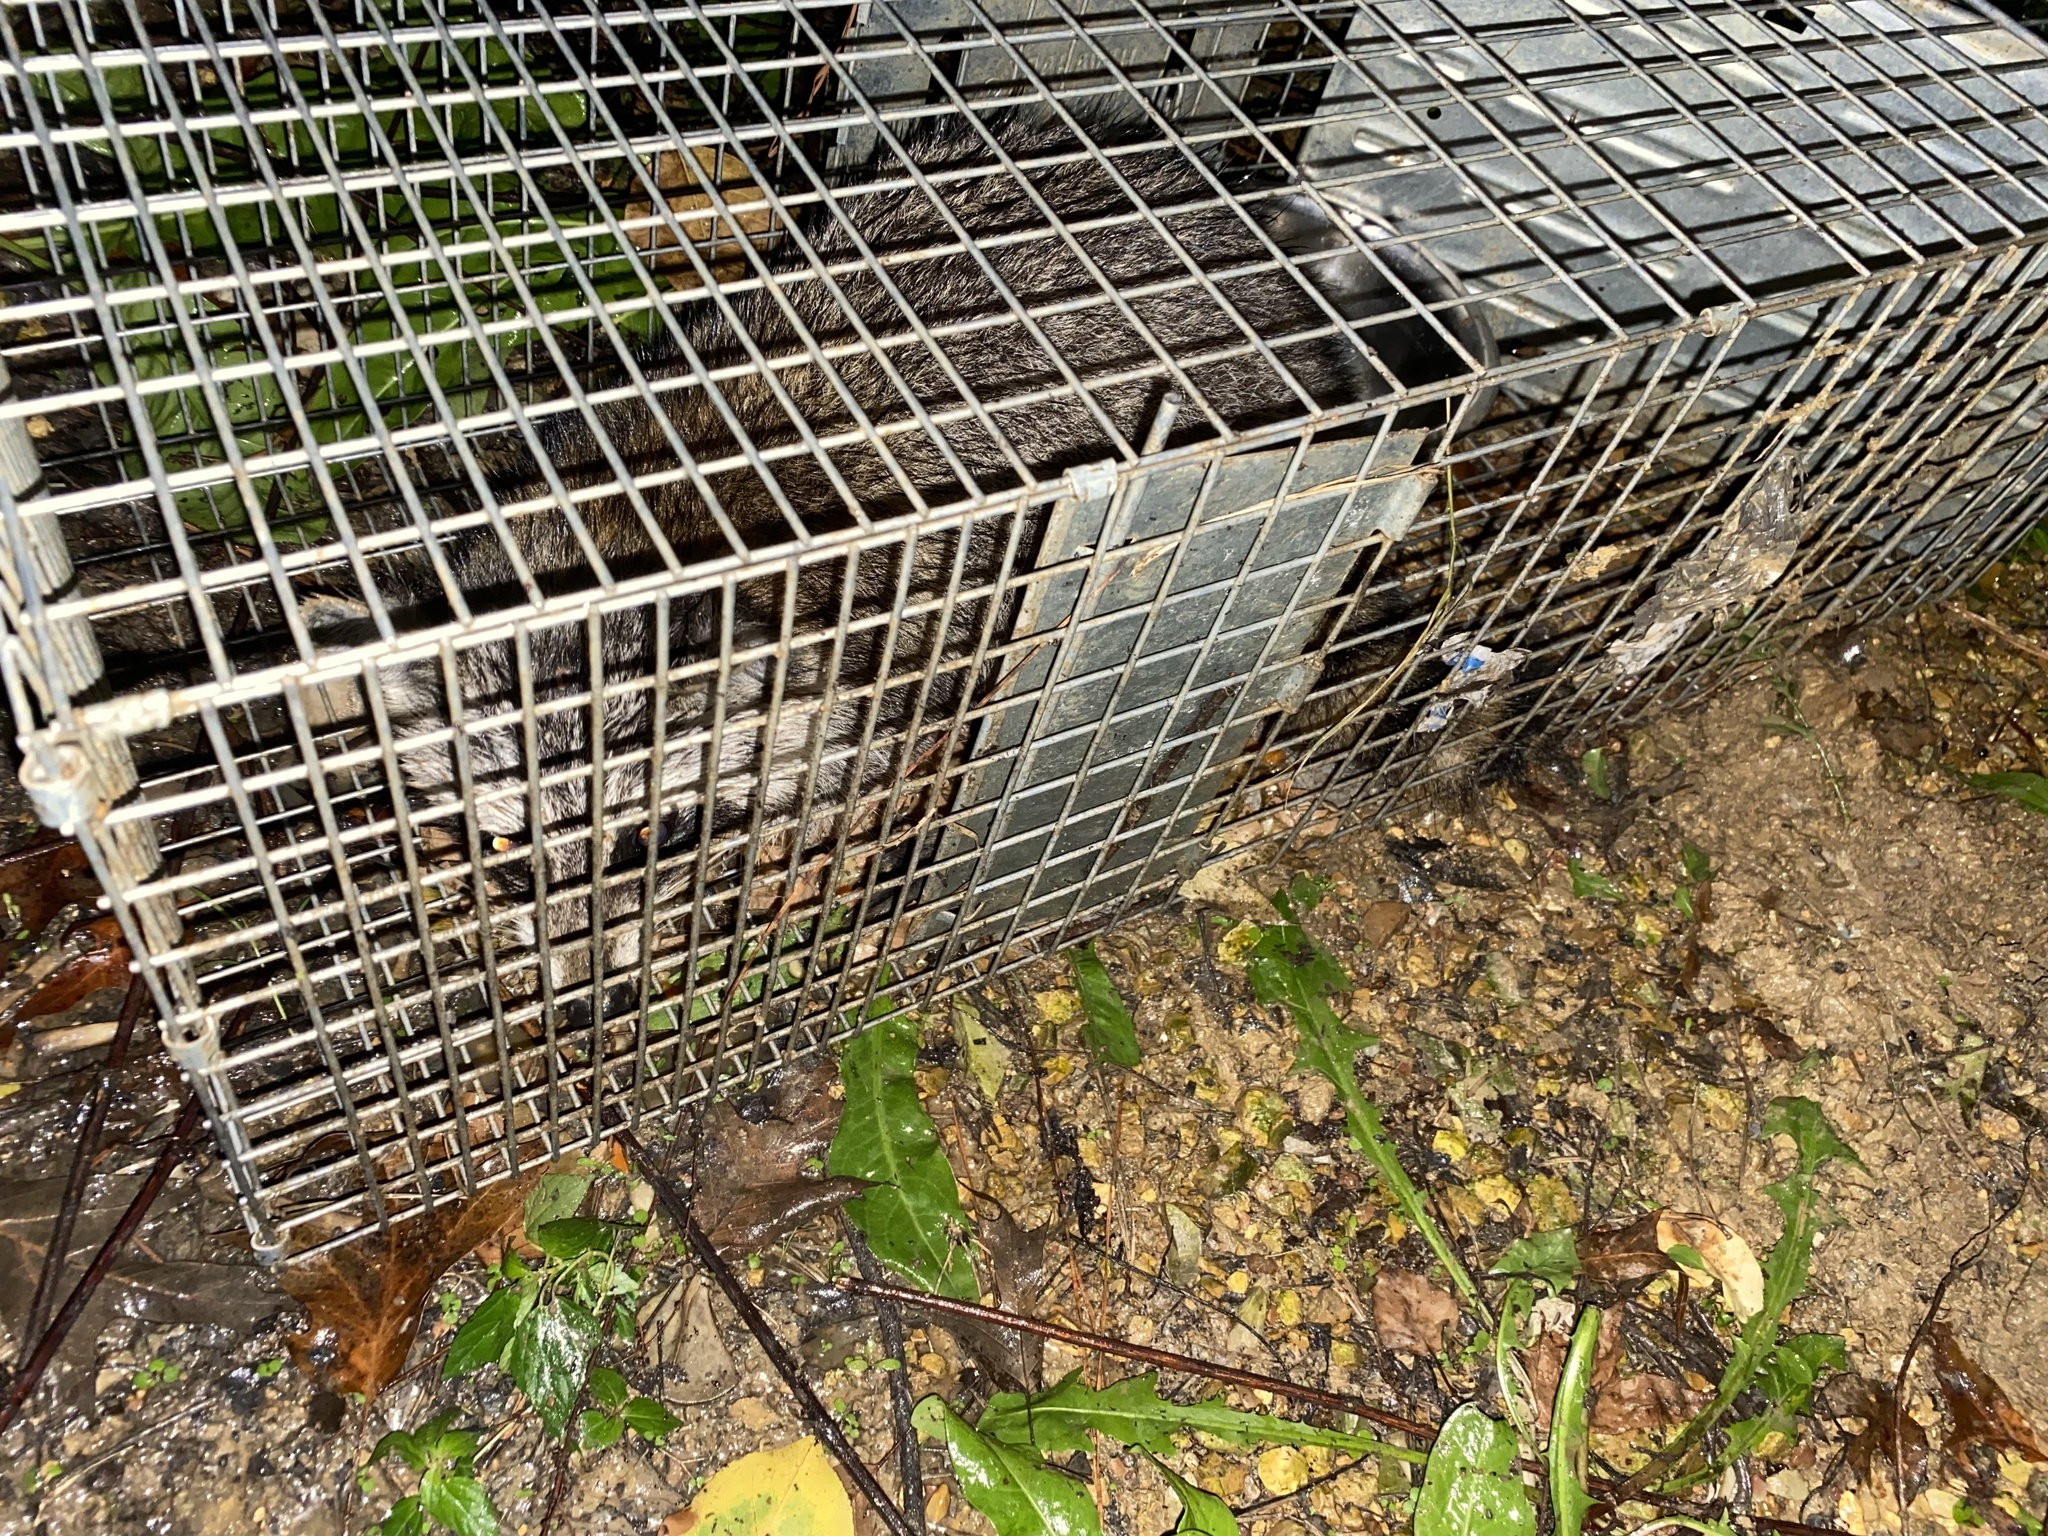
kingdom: Animalia
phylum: Chordata
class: Mammalia
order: Carnivora
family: Procyonidae
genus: Procyon
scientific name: Procyon lotor
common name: Raccoon
